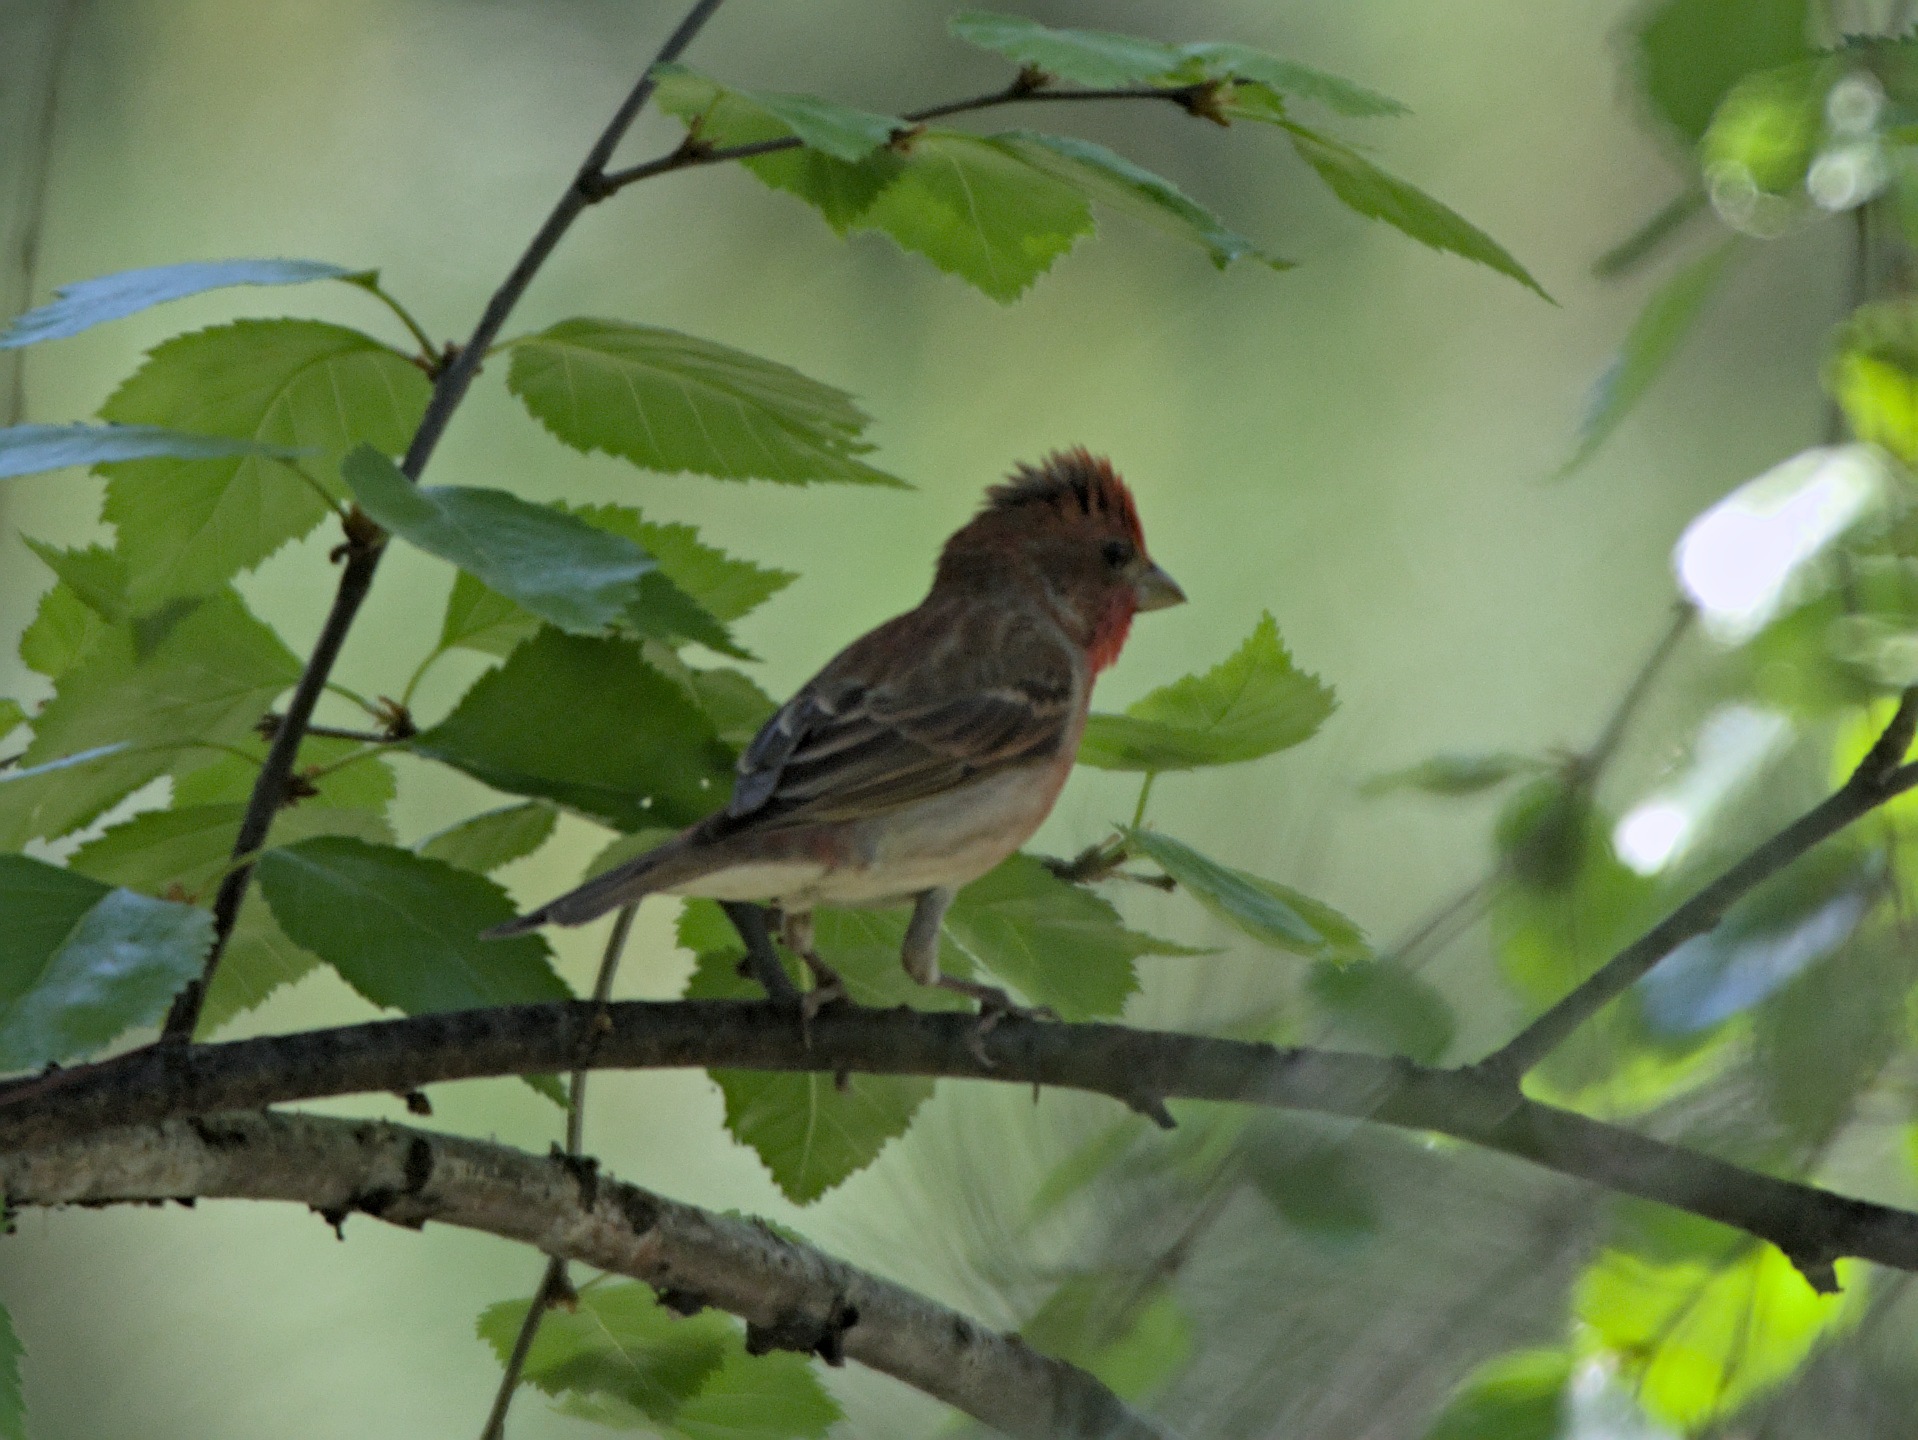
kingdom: Animalia
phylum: Chordata
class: Aves
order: Passeriformes
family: Fringillidae
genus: Carpodacus
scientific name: Carpodacus erythrinus
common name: Common rosefinch
